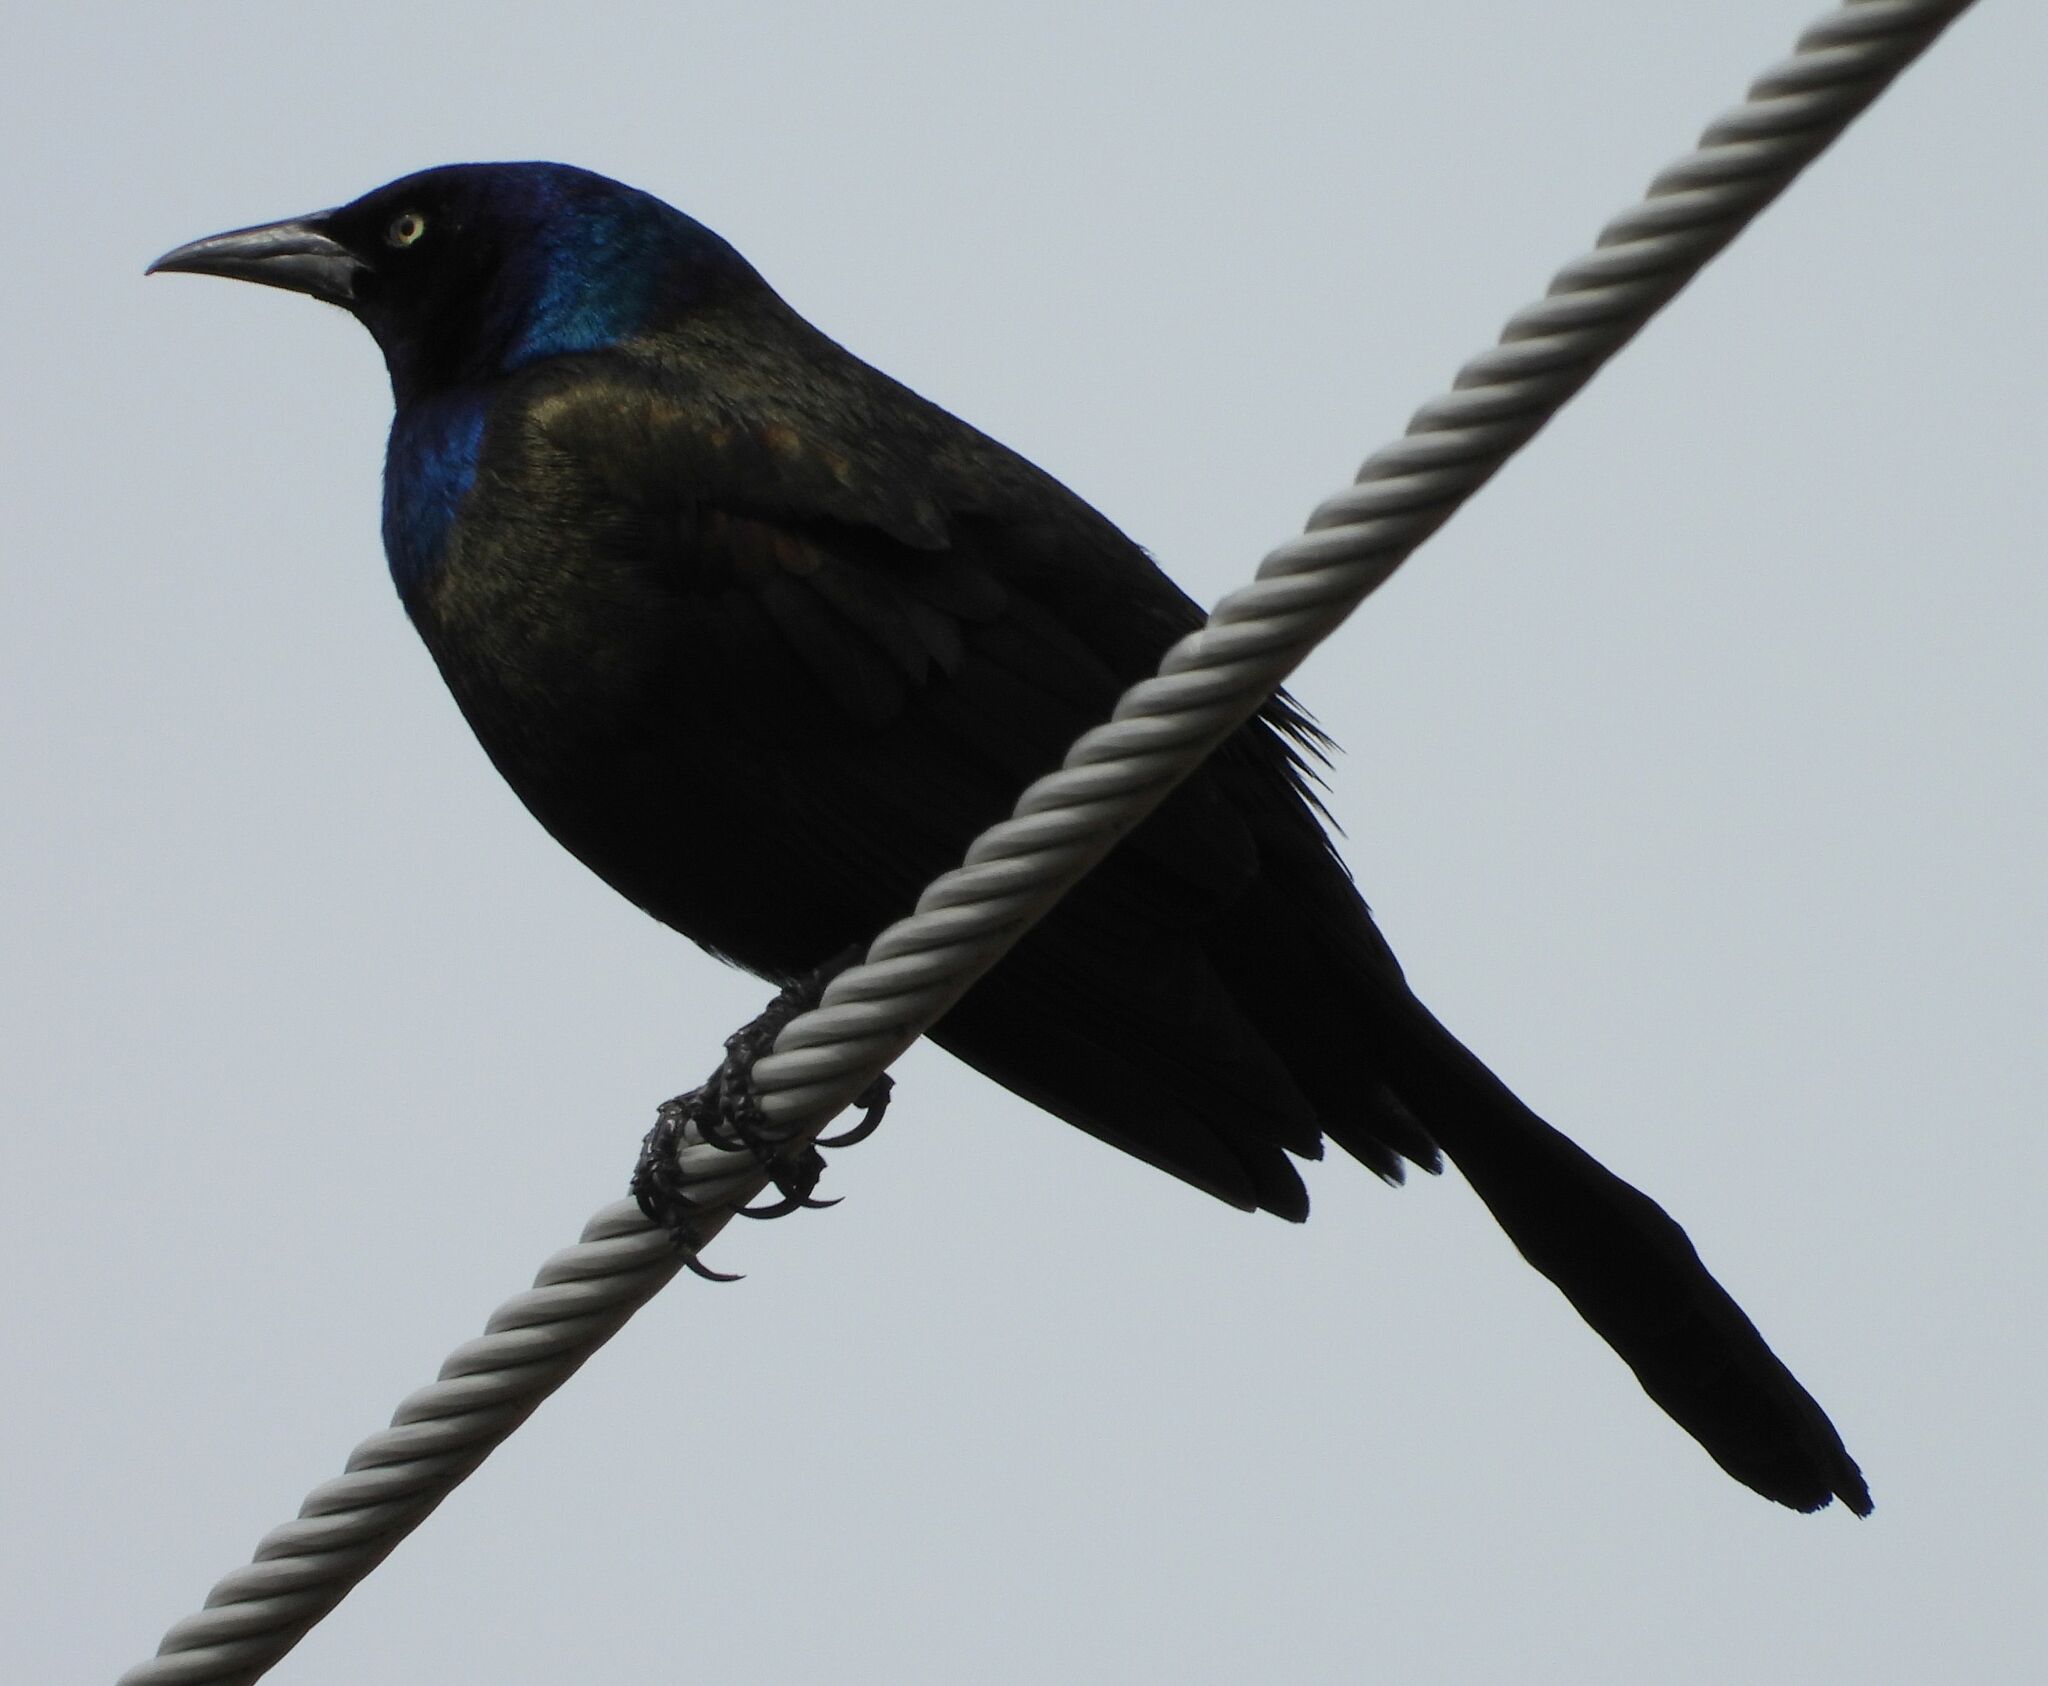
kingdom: Animalia
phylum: Chordata
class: Aves
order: Passeriformes
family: Icteridae
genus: Quiscalus
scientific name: Quiscalus quiscula
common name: Common grackle
